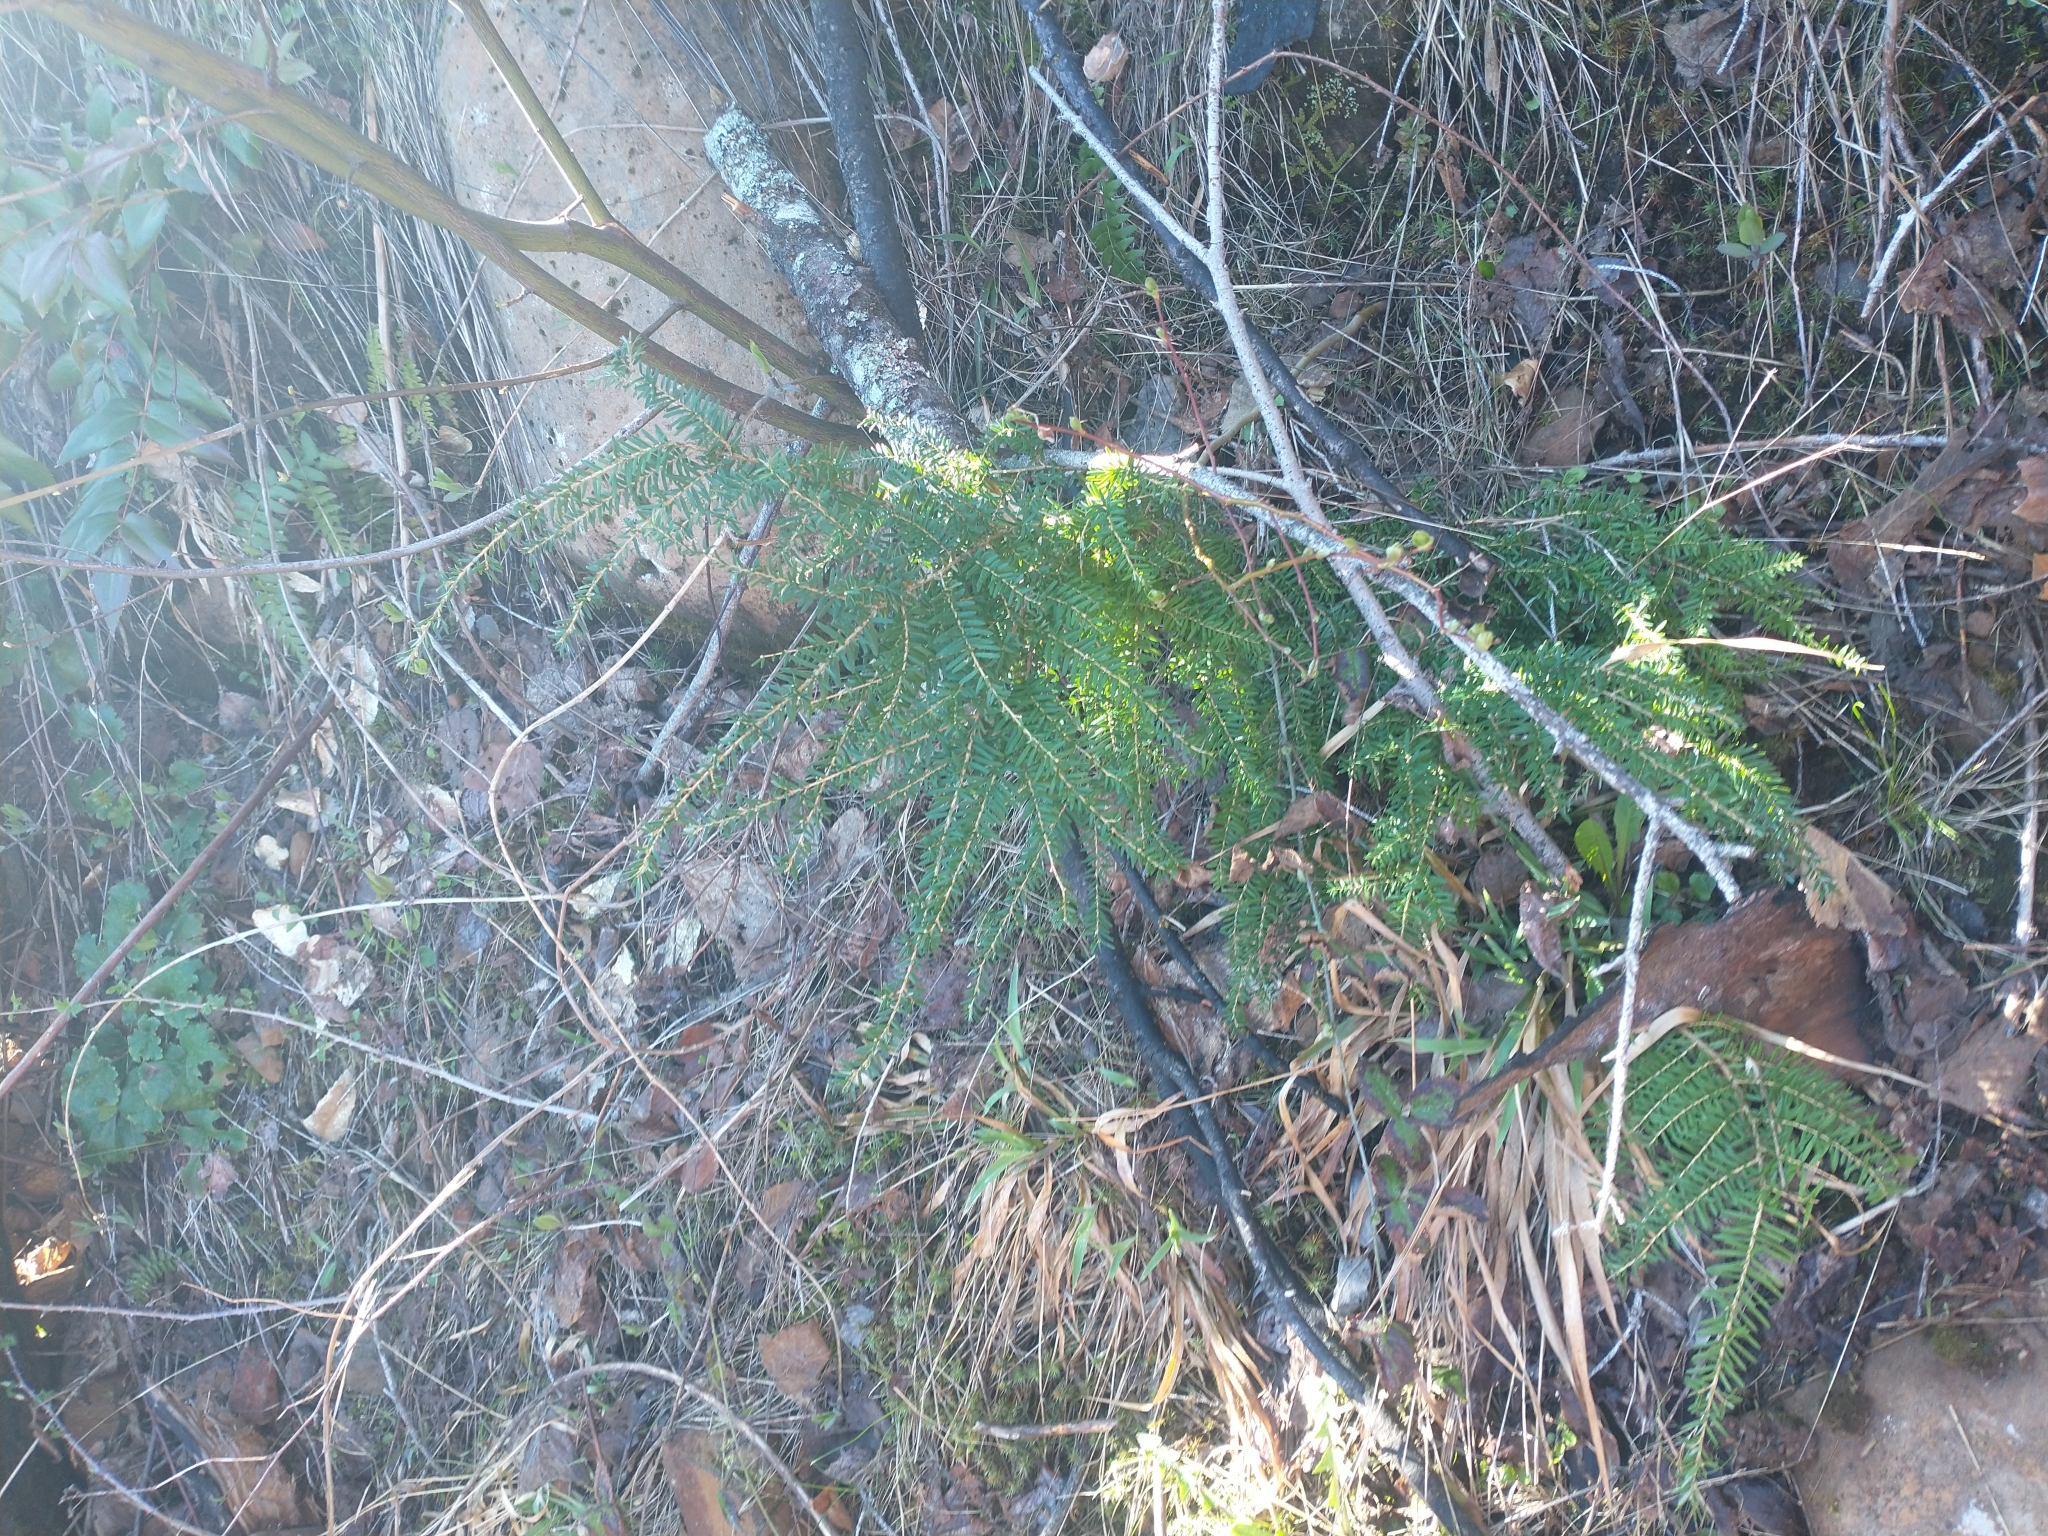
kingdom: Plantae
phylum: Tracheophyta
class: Pinopsida
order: Pinales
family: Pinaceae
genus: Tsuga
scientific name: Tsuga heterophylla
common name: Western hemlock
